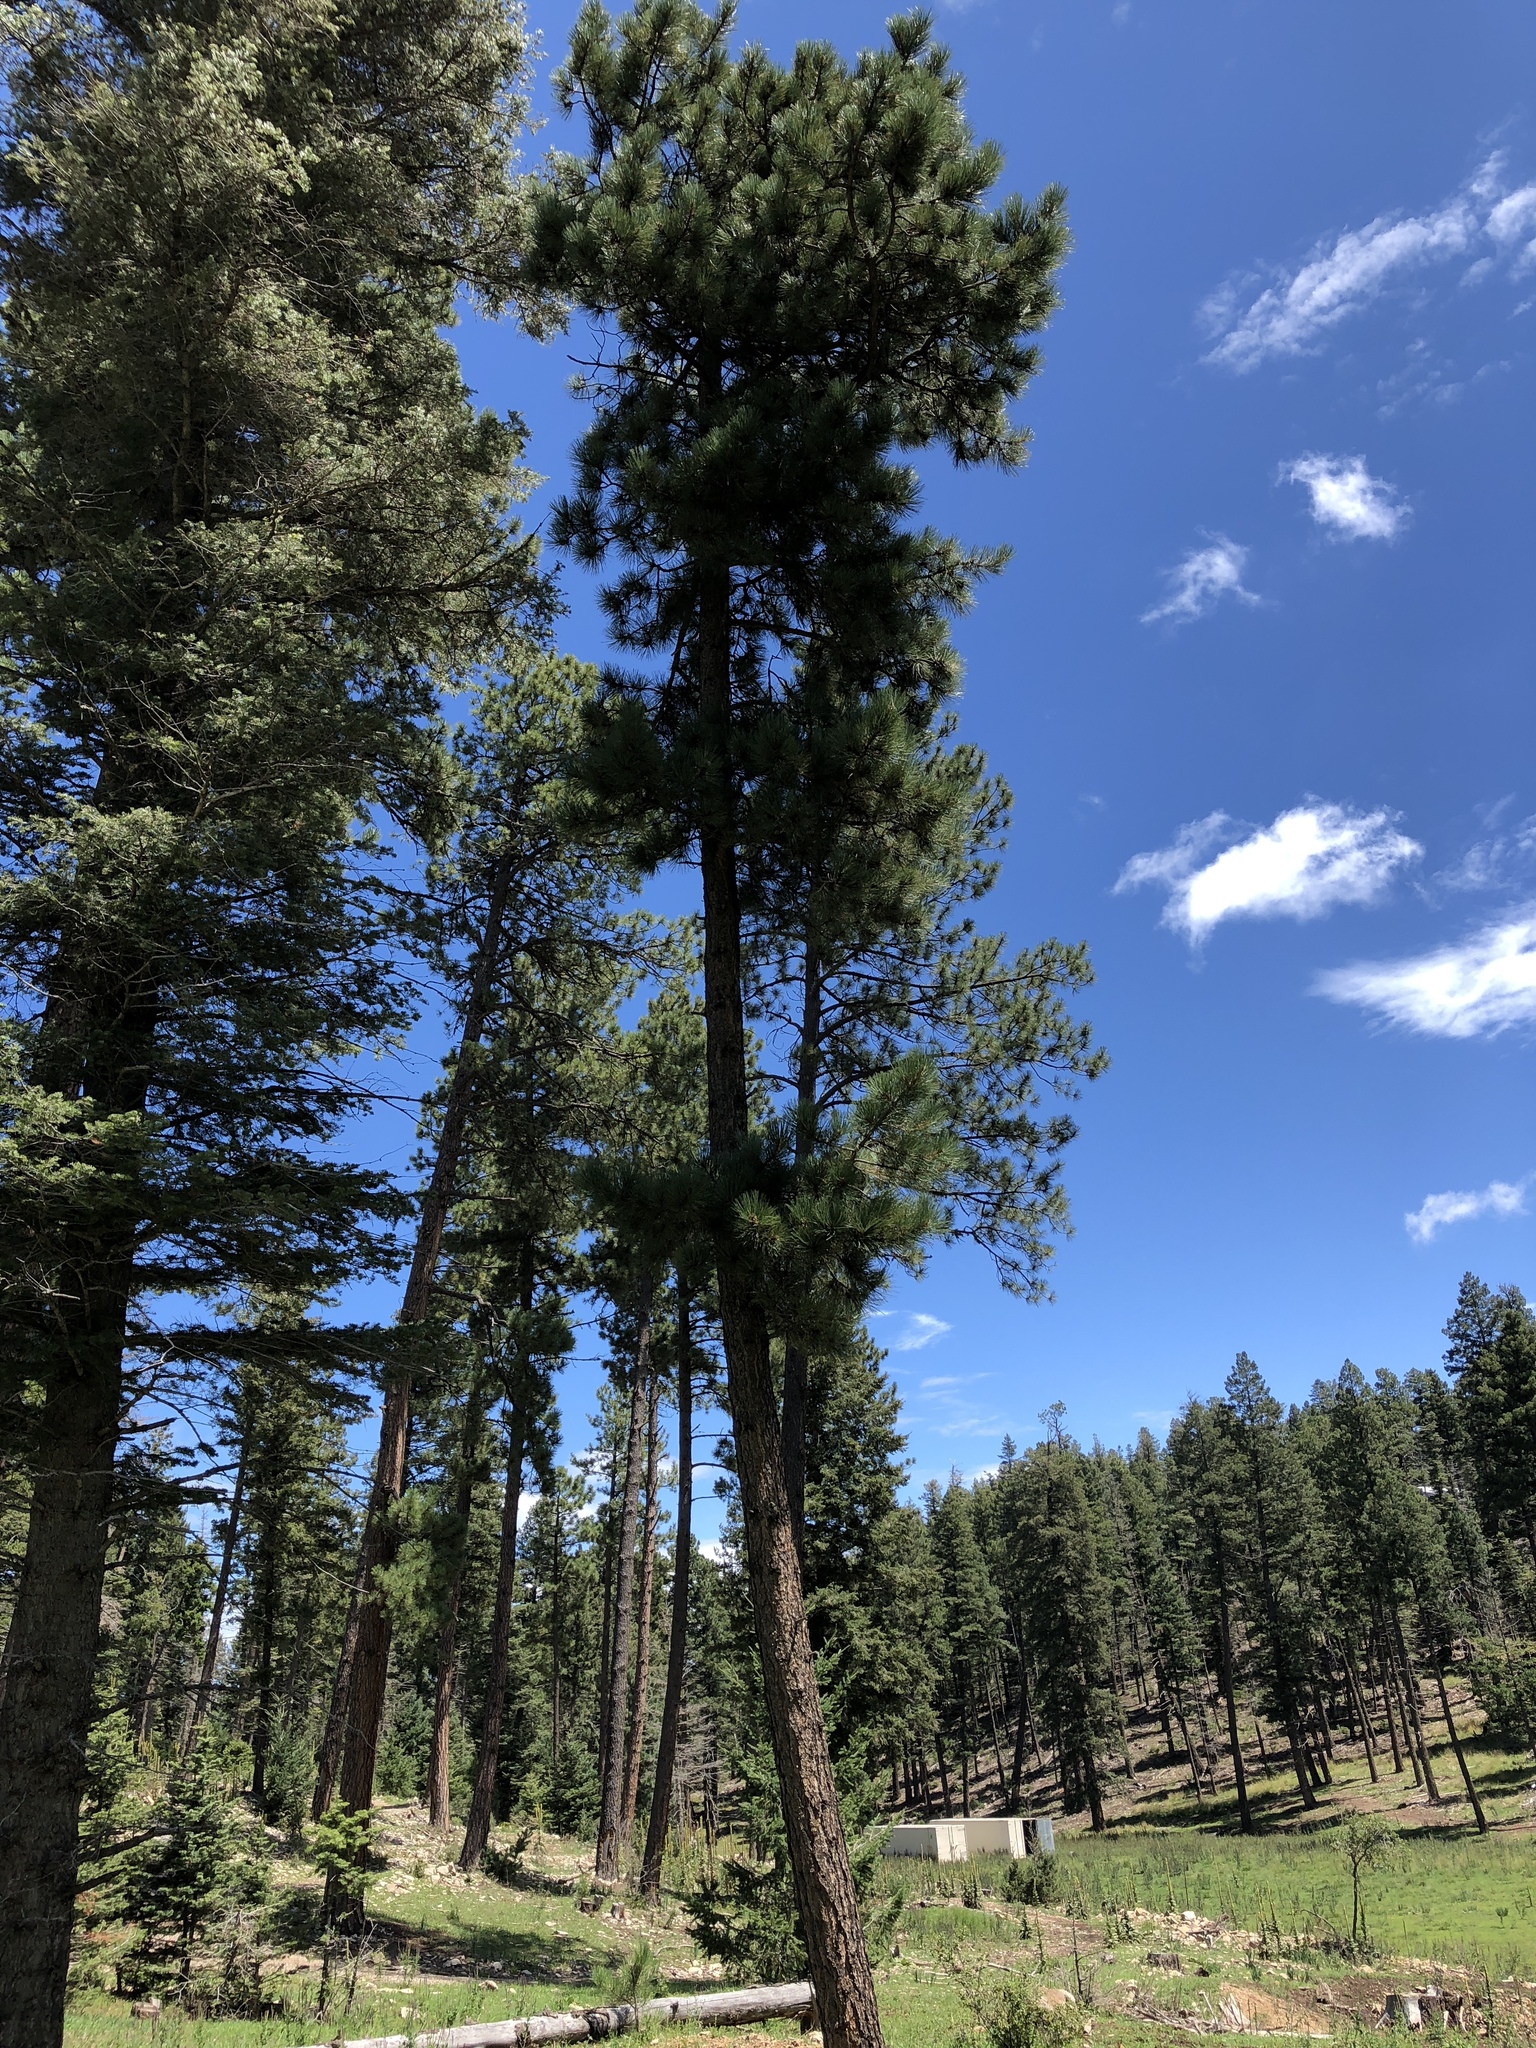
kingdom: Plantae
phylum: Tracheophyta
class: Pinopsida
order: Pinales
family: Pinaceae
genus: Pinus
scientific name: Pinus ponderosa
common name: Western yellow-pine
